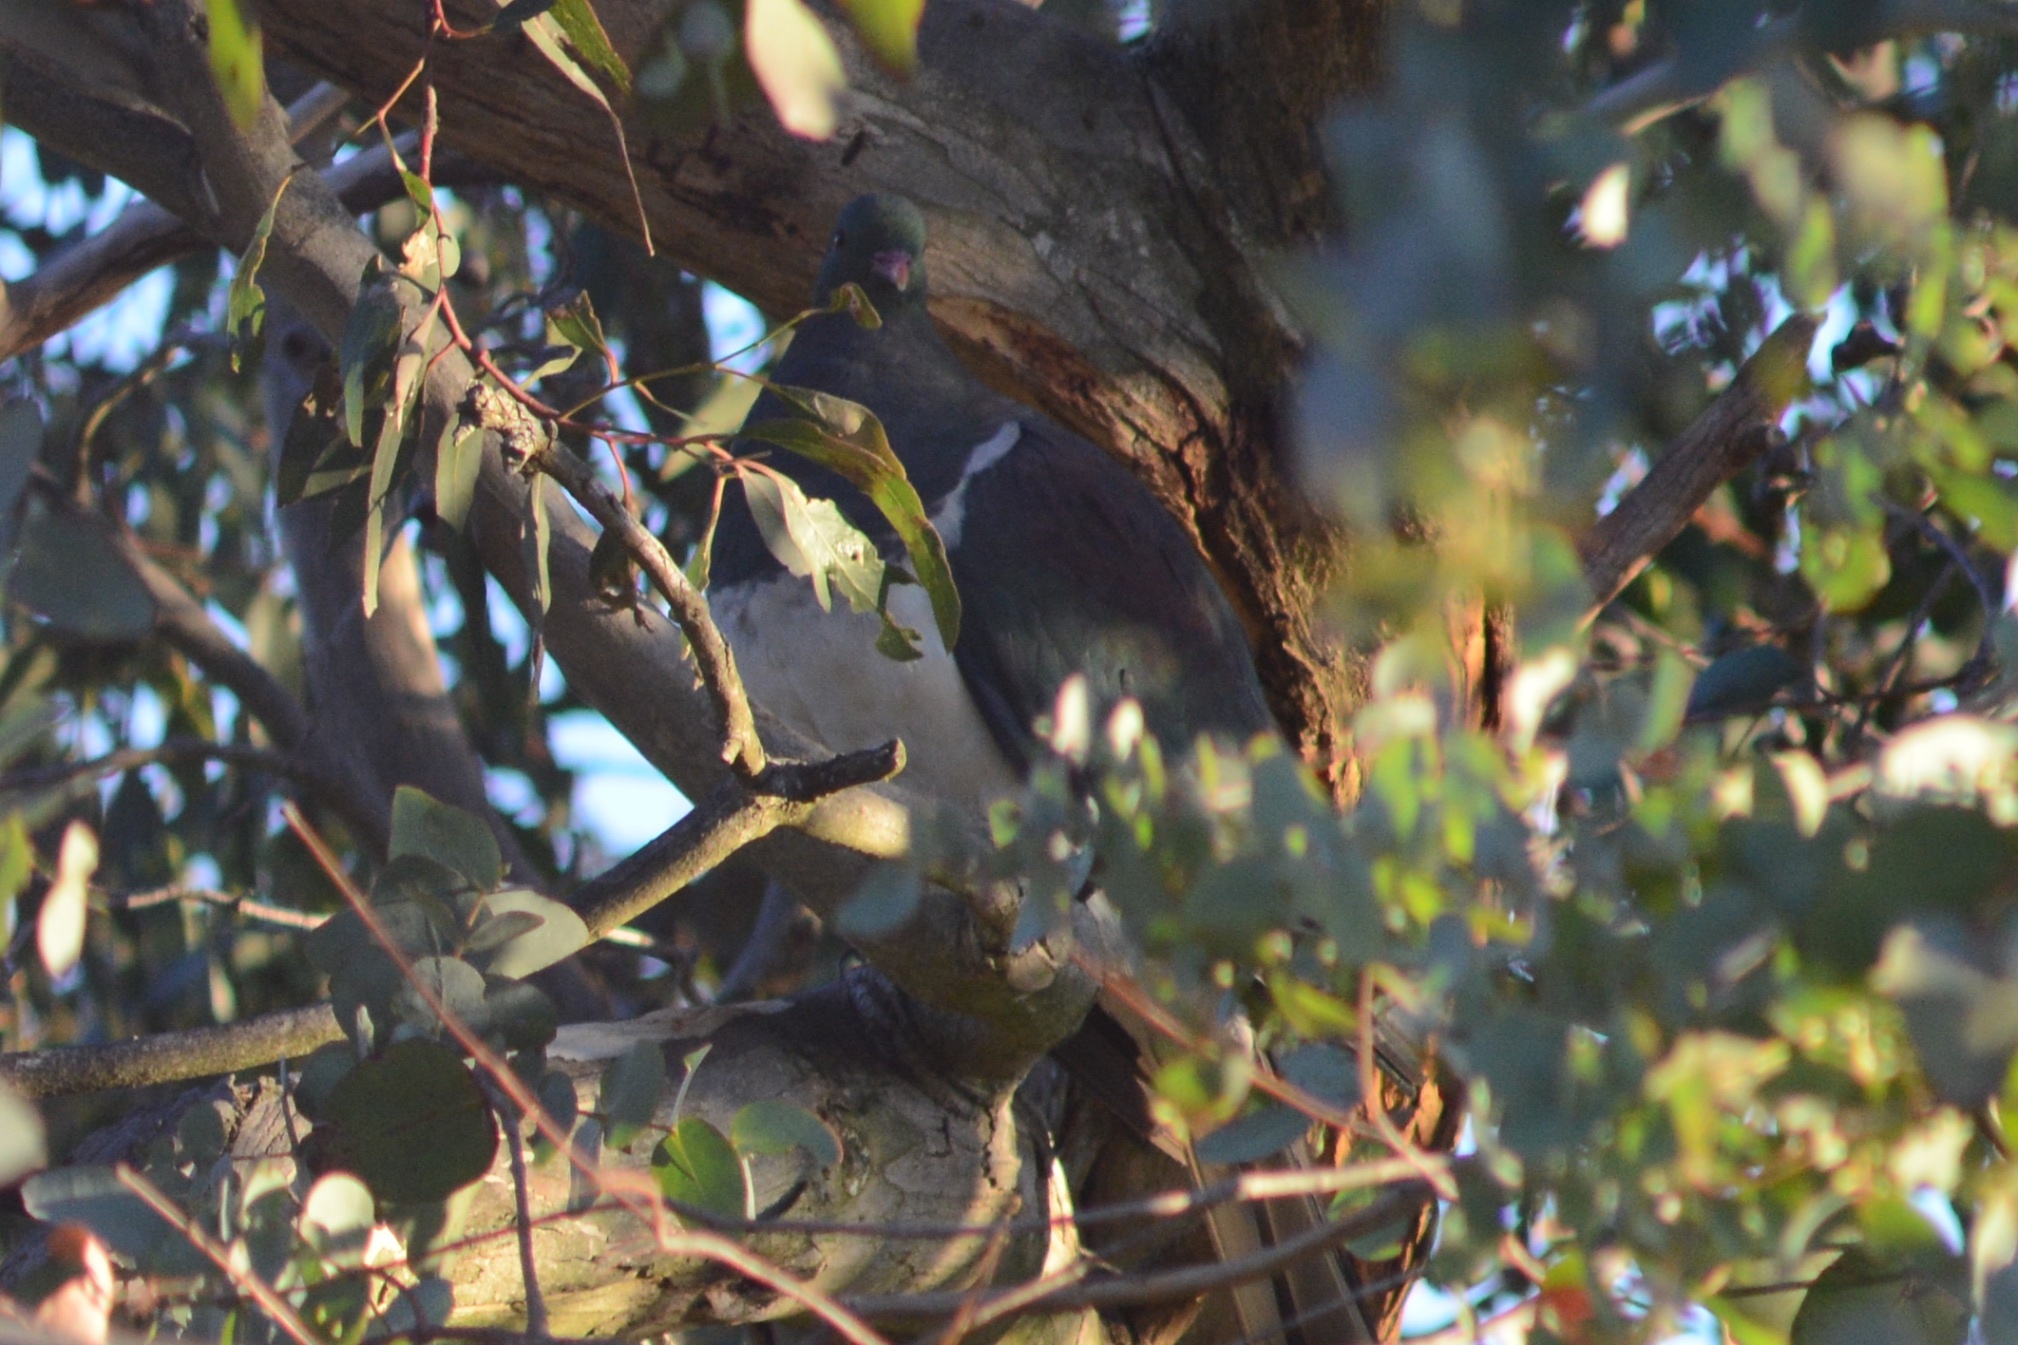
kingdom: Animalia
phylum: Chordata
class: Aves
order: Columbiformes
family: Columbidae
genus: Hemiphaga
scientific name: Hemiphaga novaeseelandiae
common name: New zealand pigeon
